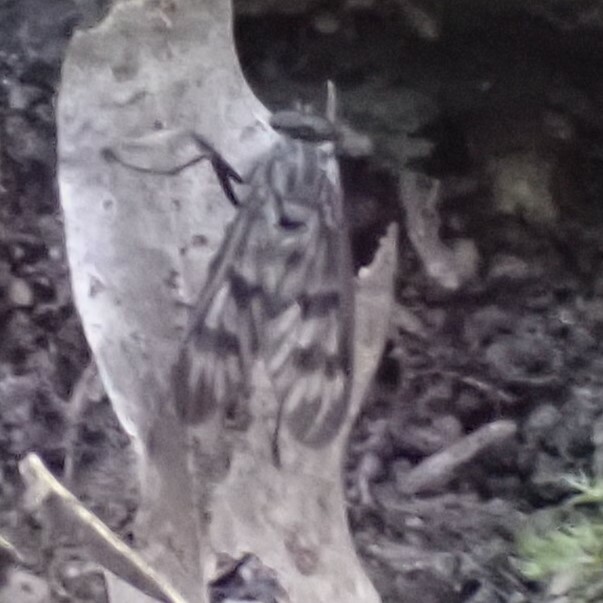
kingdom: Animalia
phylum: Arthropoda
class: Insecta
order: Diptera
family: Rhagionidae
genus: Rhagio
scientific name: Rhagio mystaceus
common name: Common snipe fly
